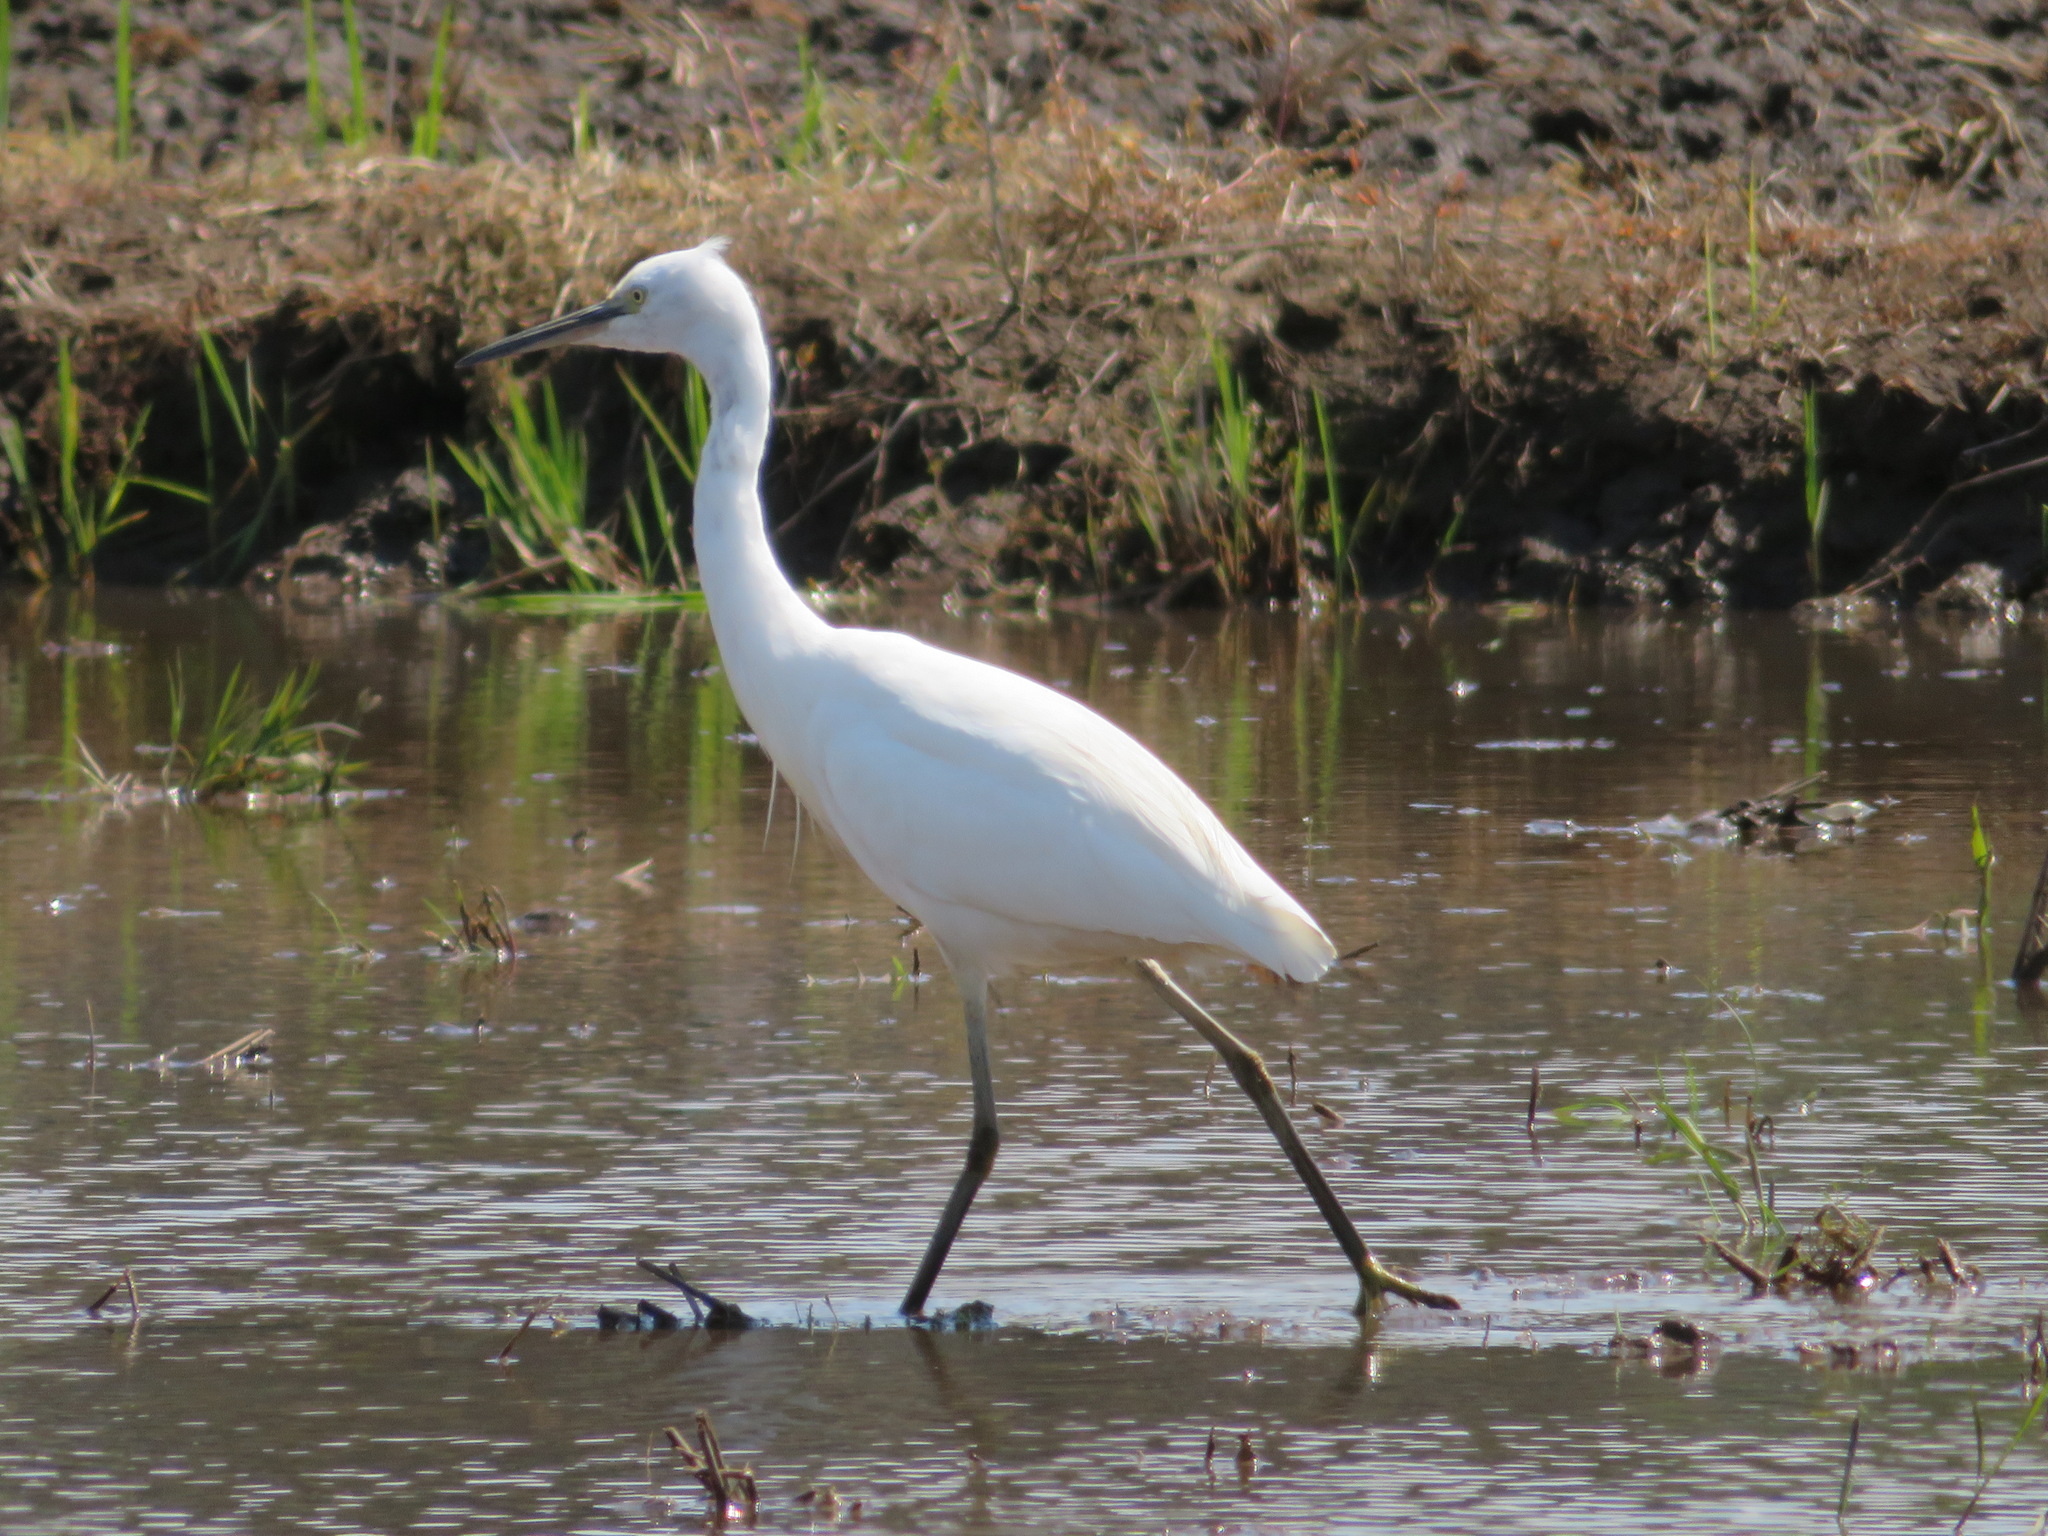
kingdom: Animalia
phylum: Chordata
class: Aves
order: Pelecaniformes
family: Ardeidae
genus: Egretta
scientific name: Egretta garzetta
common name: Little egret
